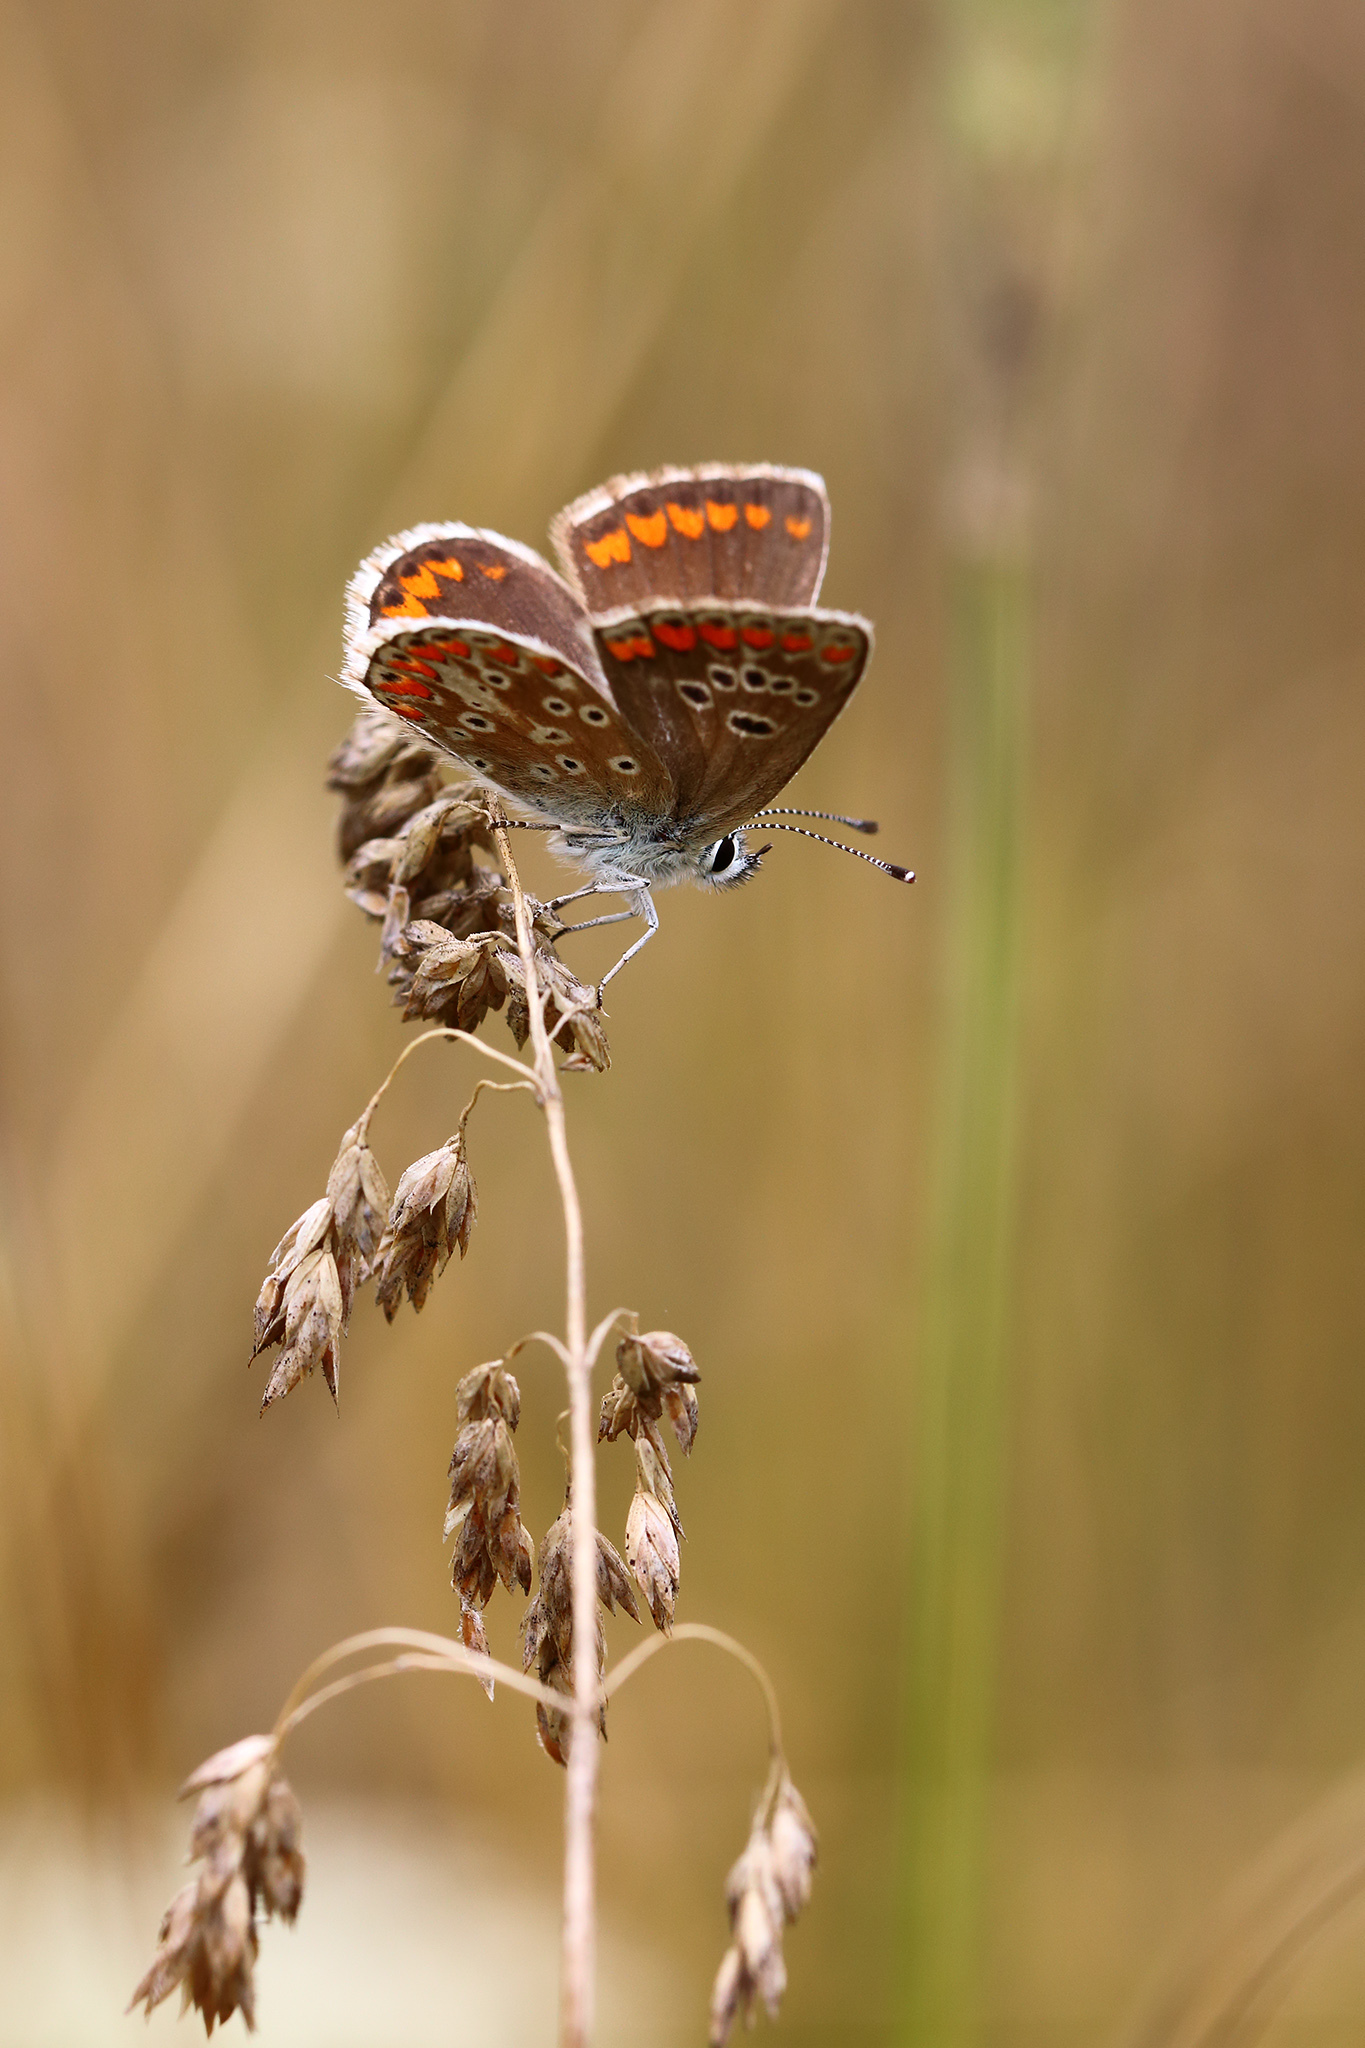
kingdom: Animalia
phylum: Arthropoda
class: Insecta
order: Lepidoptera
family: Lycaenidae
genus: Aricia
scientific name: Aricia agestis
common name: Brown argus
